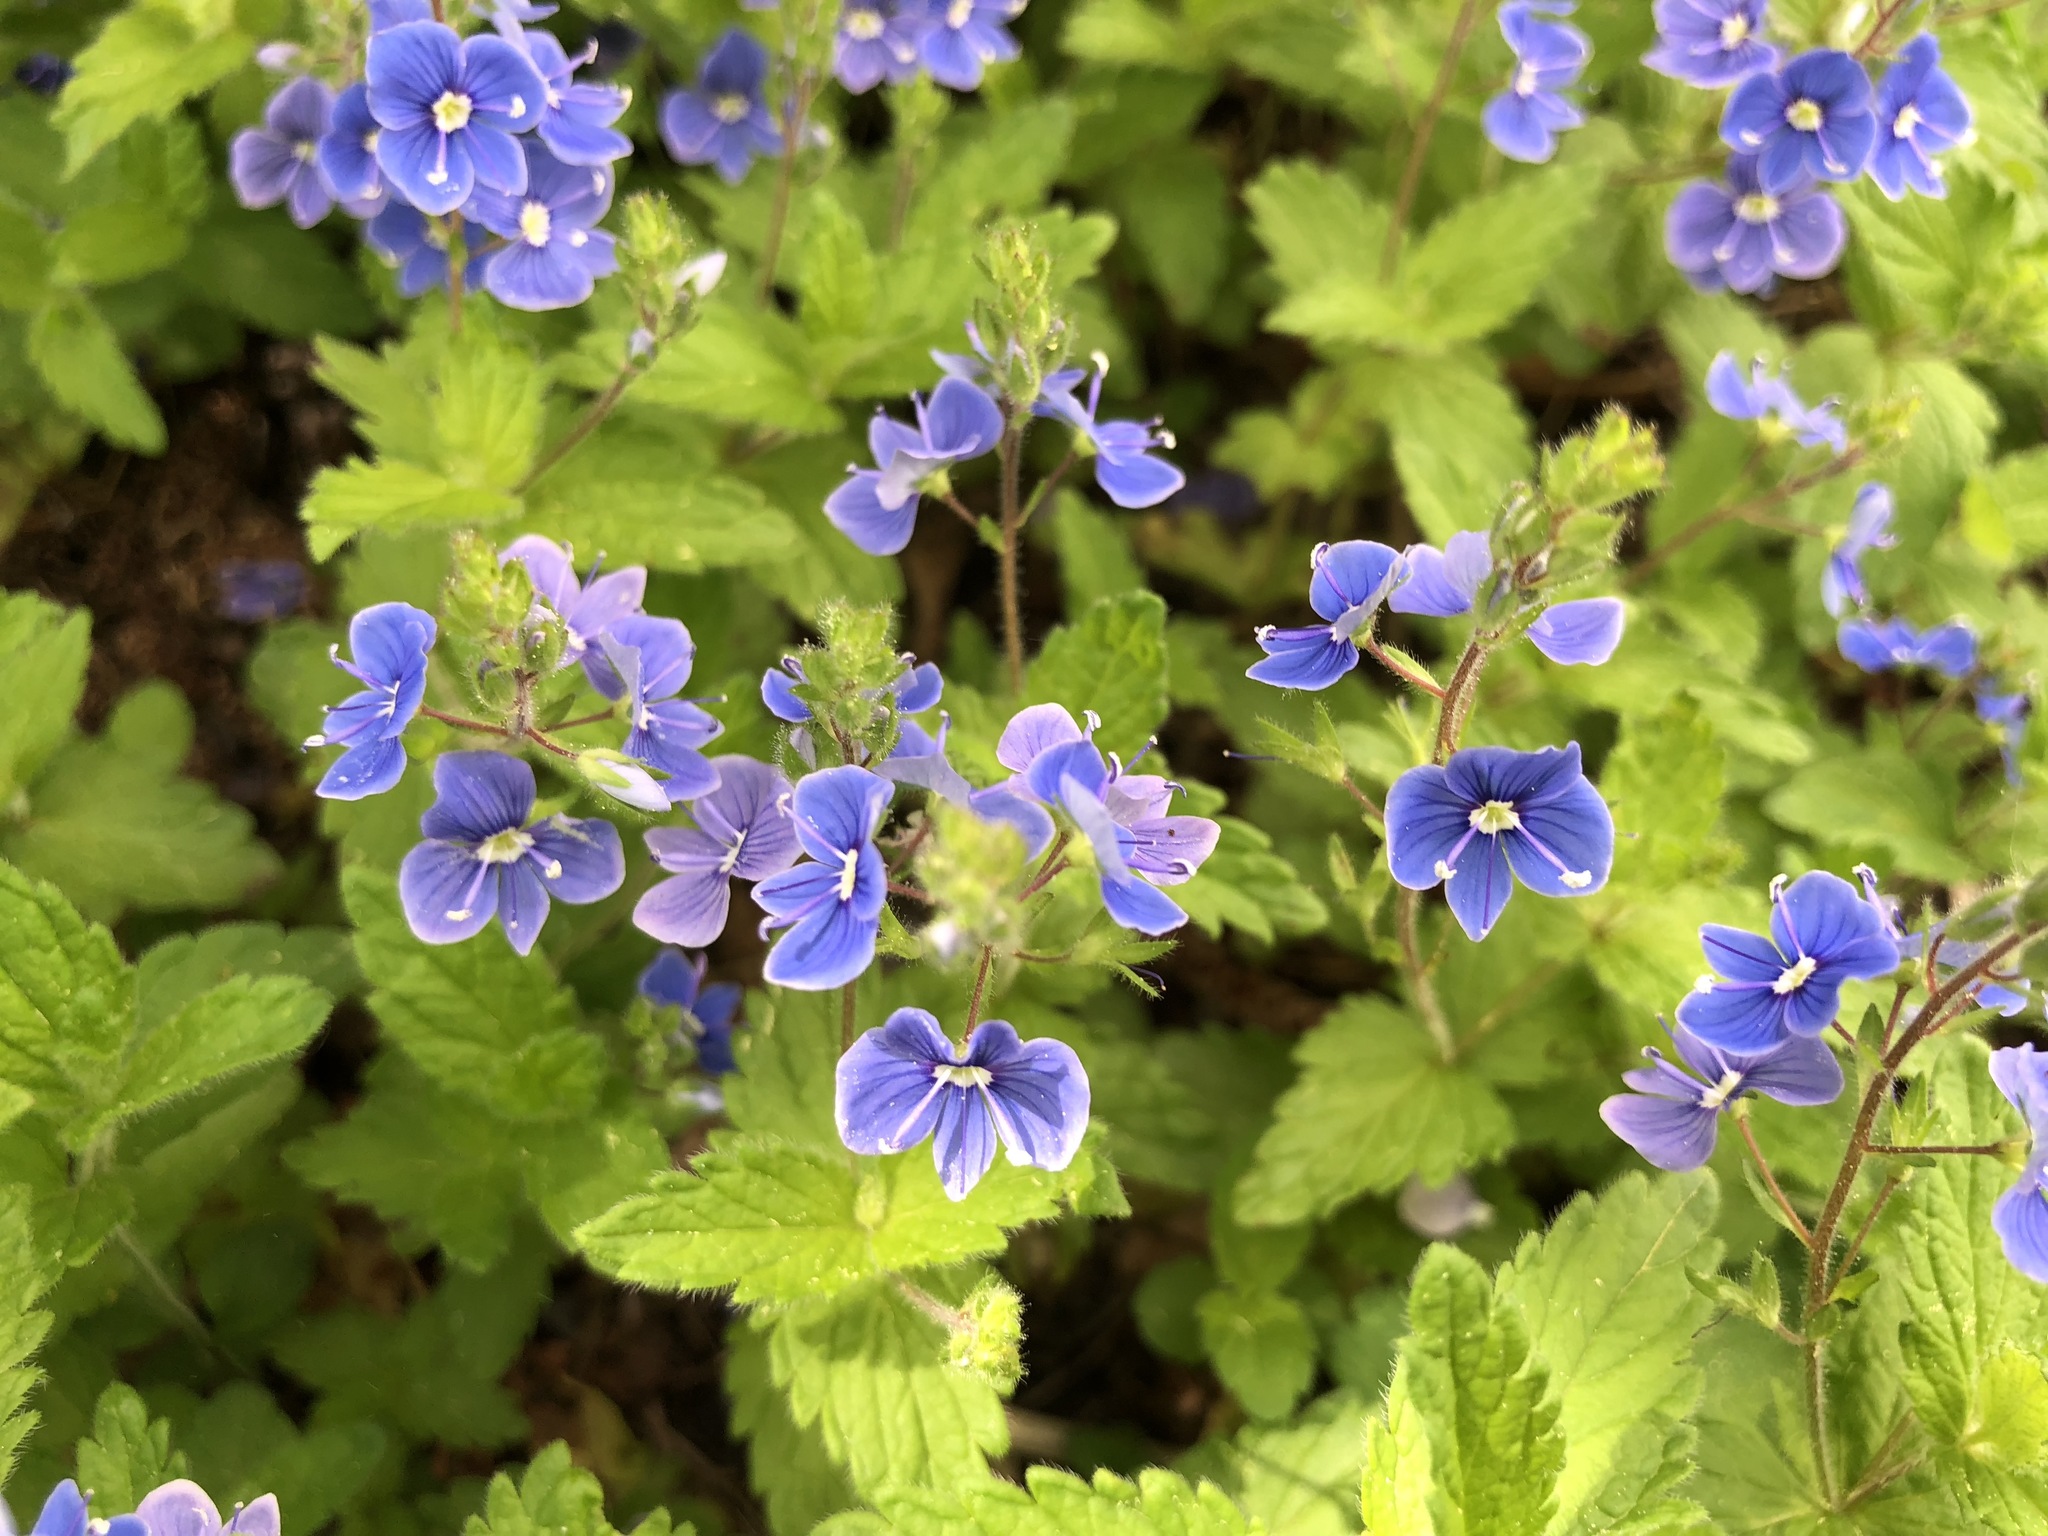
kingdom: Plantae
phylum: Tracheophyta
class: Magnoliopsida
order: Lamiales
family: Plantaginaceae
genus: Veronica
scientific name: Veronica chamaedrys
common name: Germander speedwell
